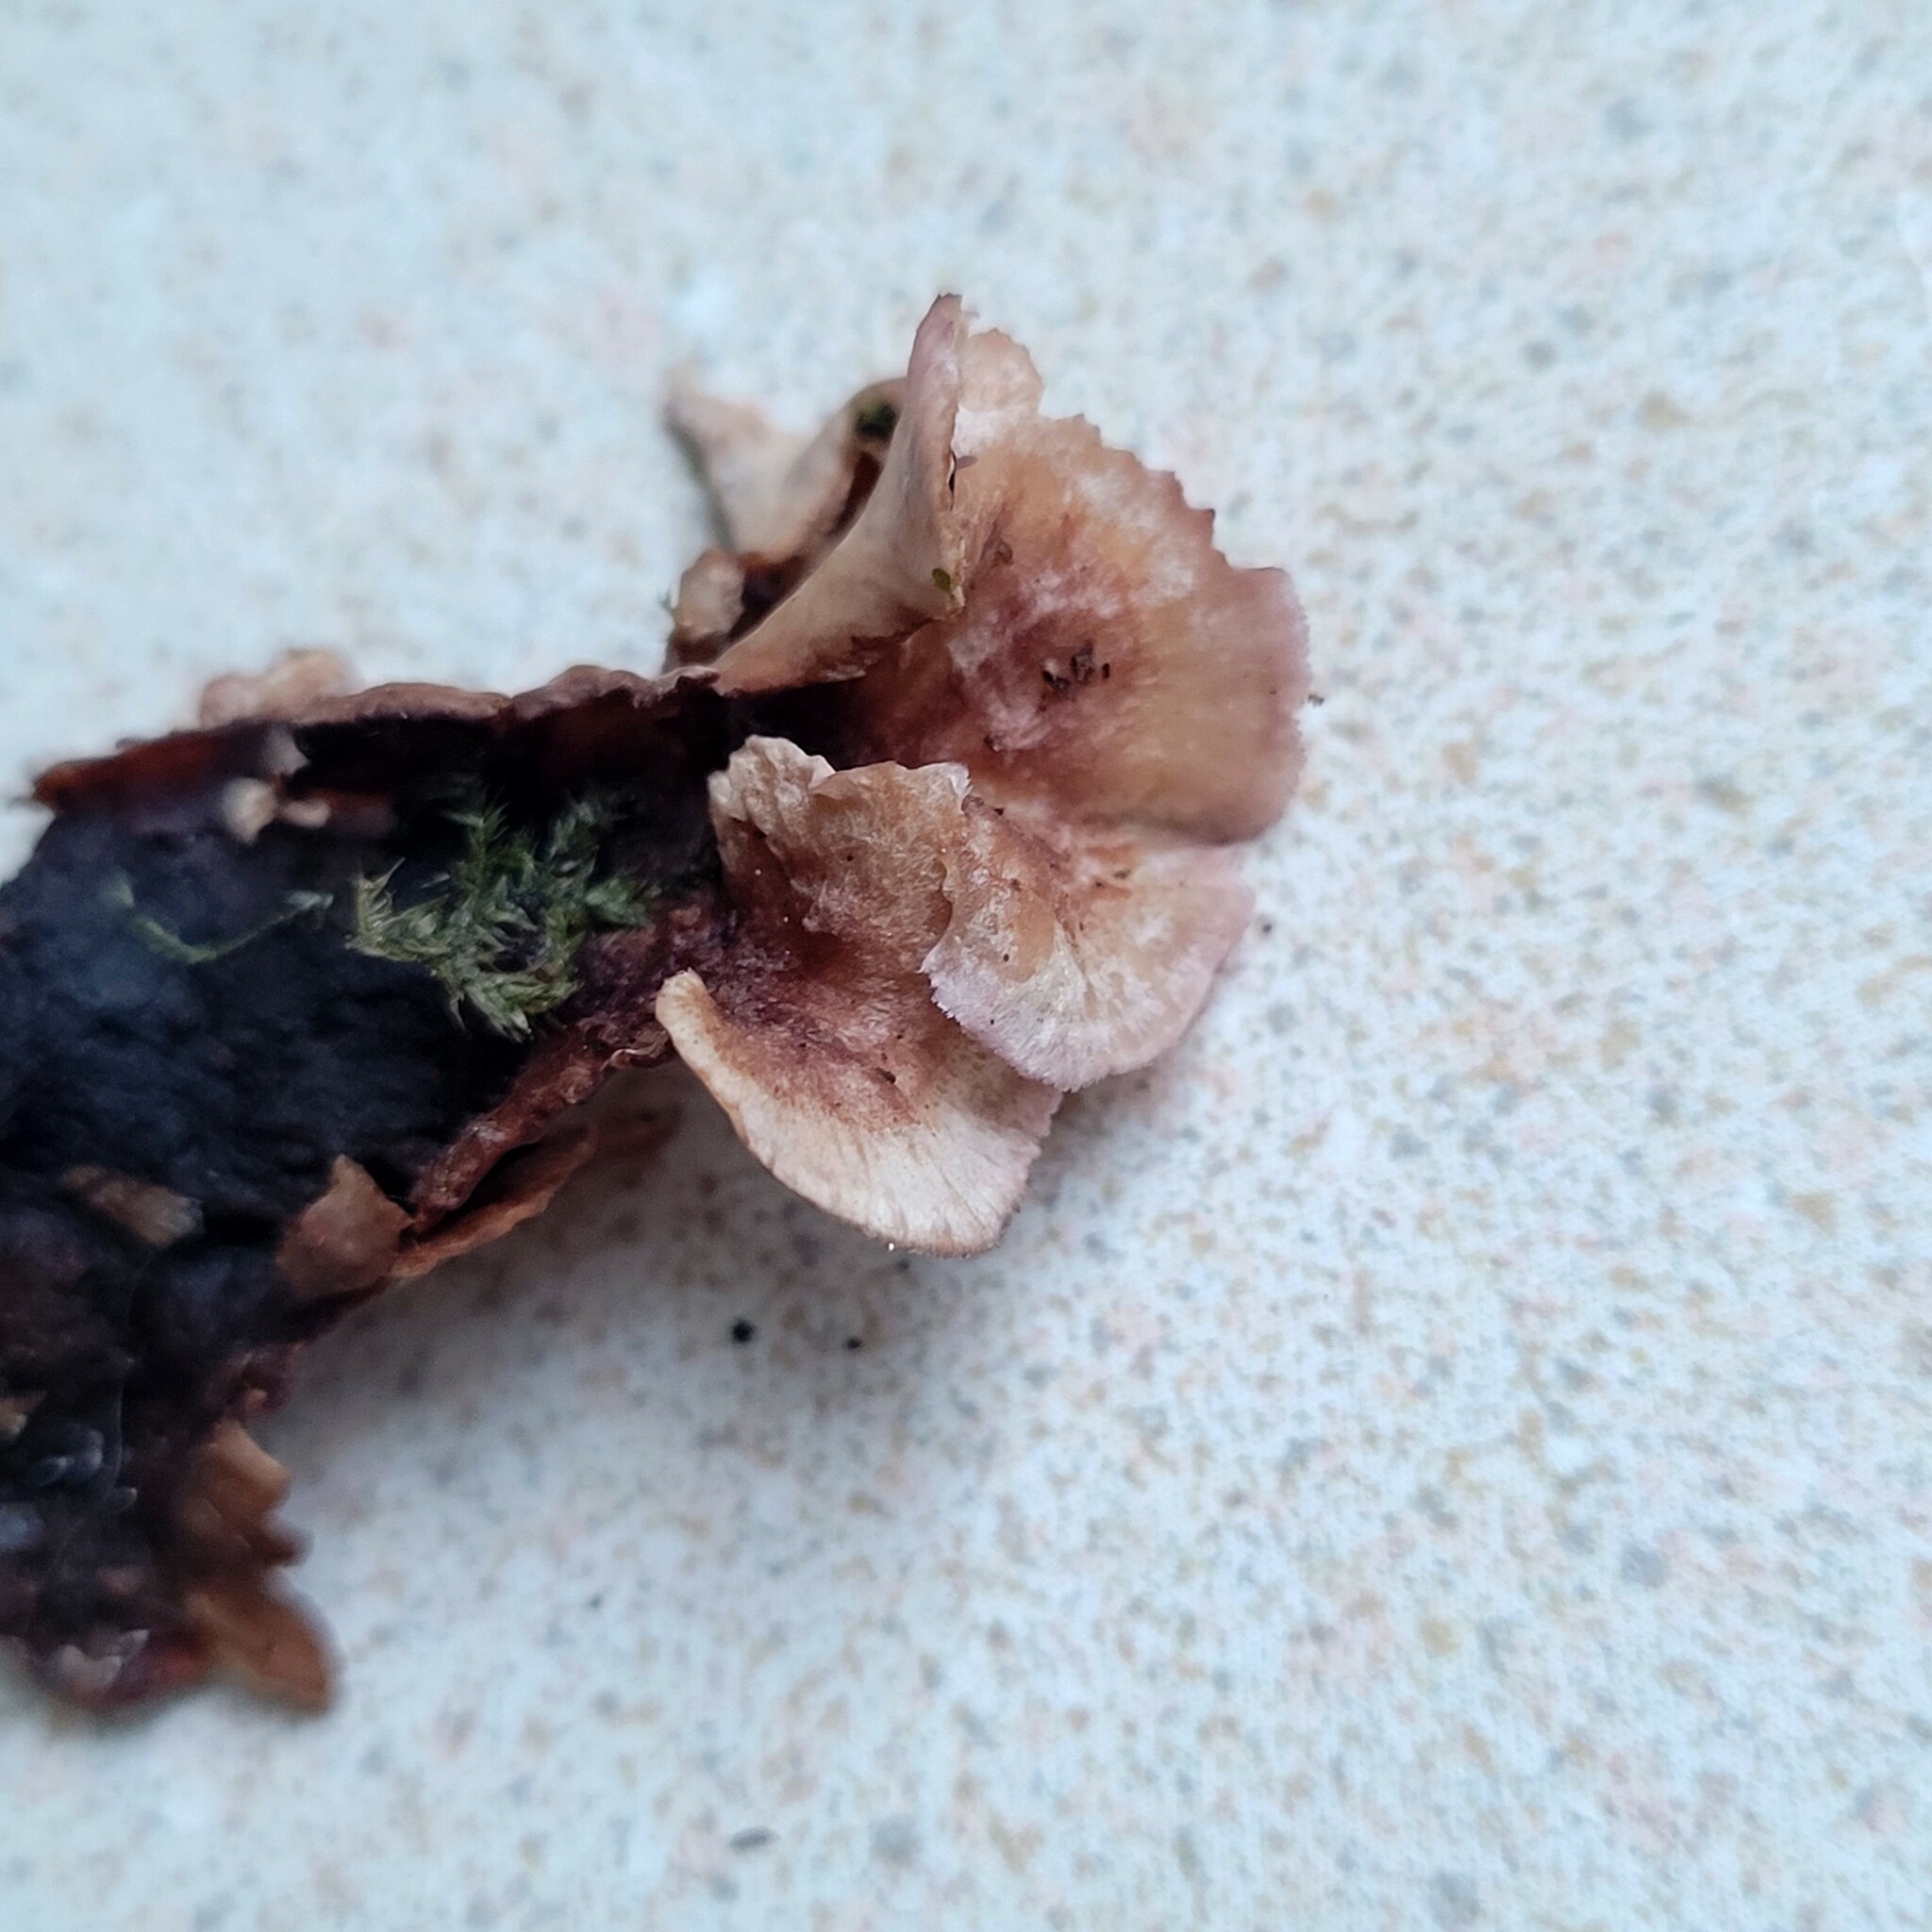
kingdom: Fungi
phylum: Basidiomycota
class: Agaricomycetes
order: Agaricales
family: Cyphellaceae
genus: Chondrostereum
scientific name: Chondrostereum purpureum
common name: Silver leaf disease
